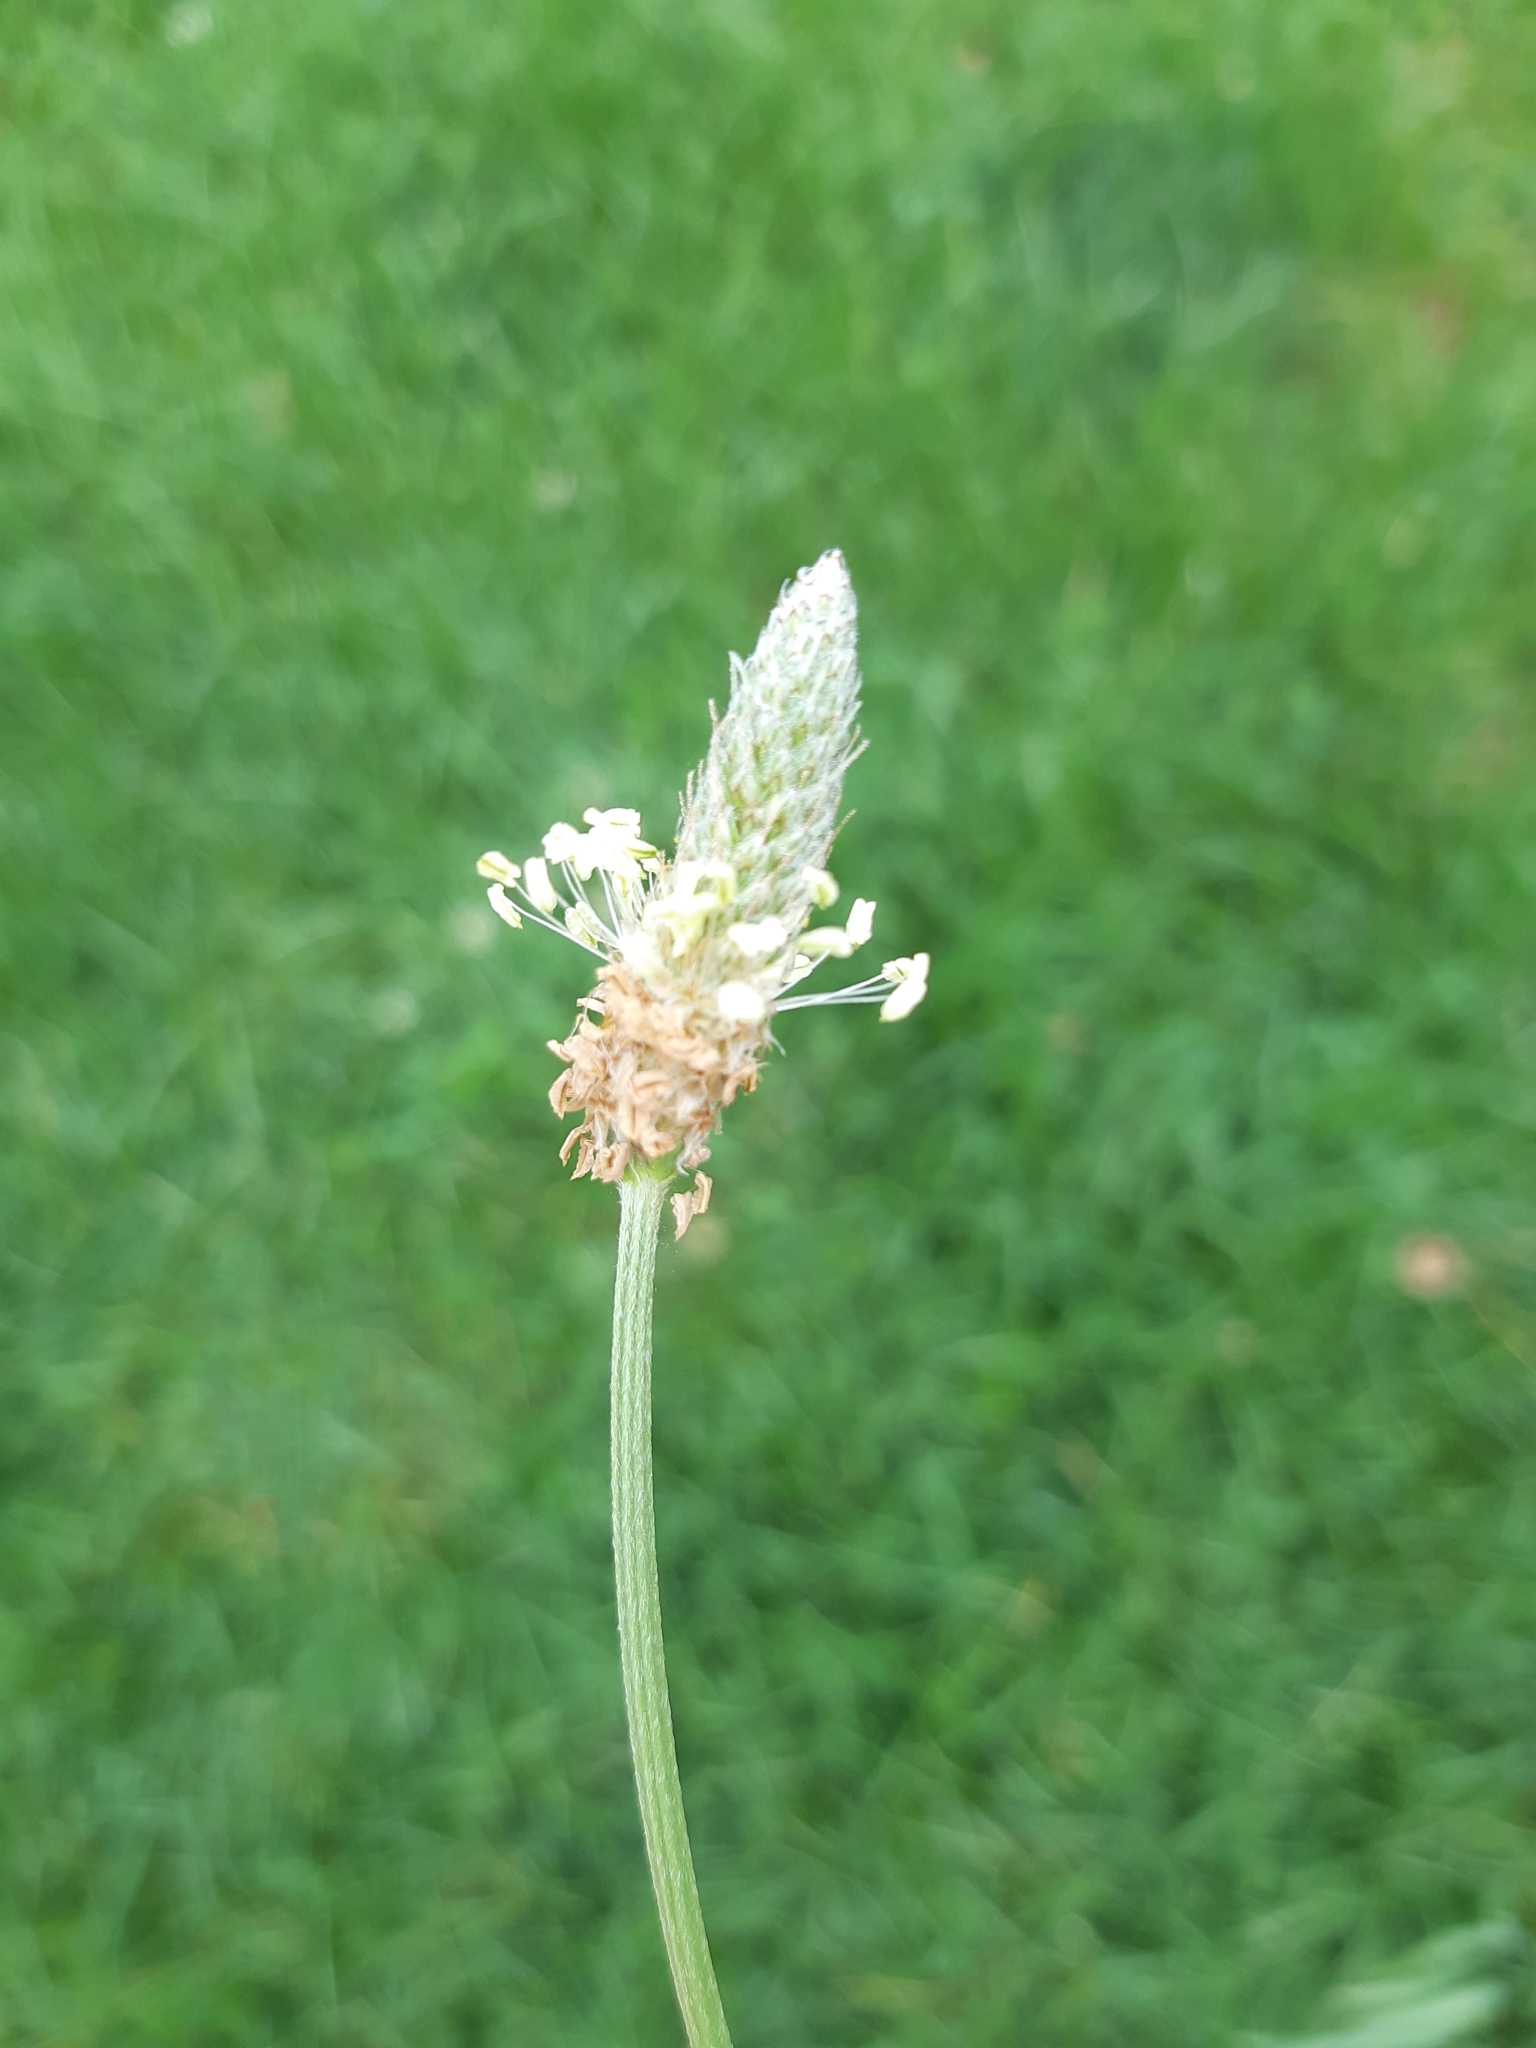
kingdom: Plantae
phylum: Tracheophyta
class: Magnoliopsida
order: Lamiales
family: Plantaginaceae
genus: Plantago
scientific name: Plantago lanceolata
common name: Ribwort plantain
